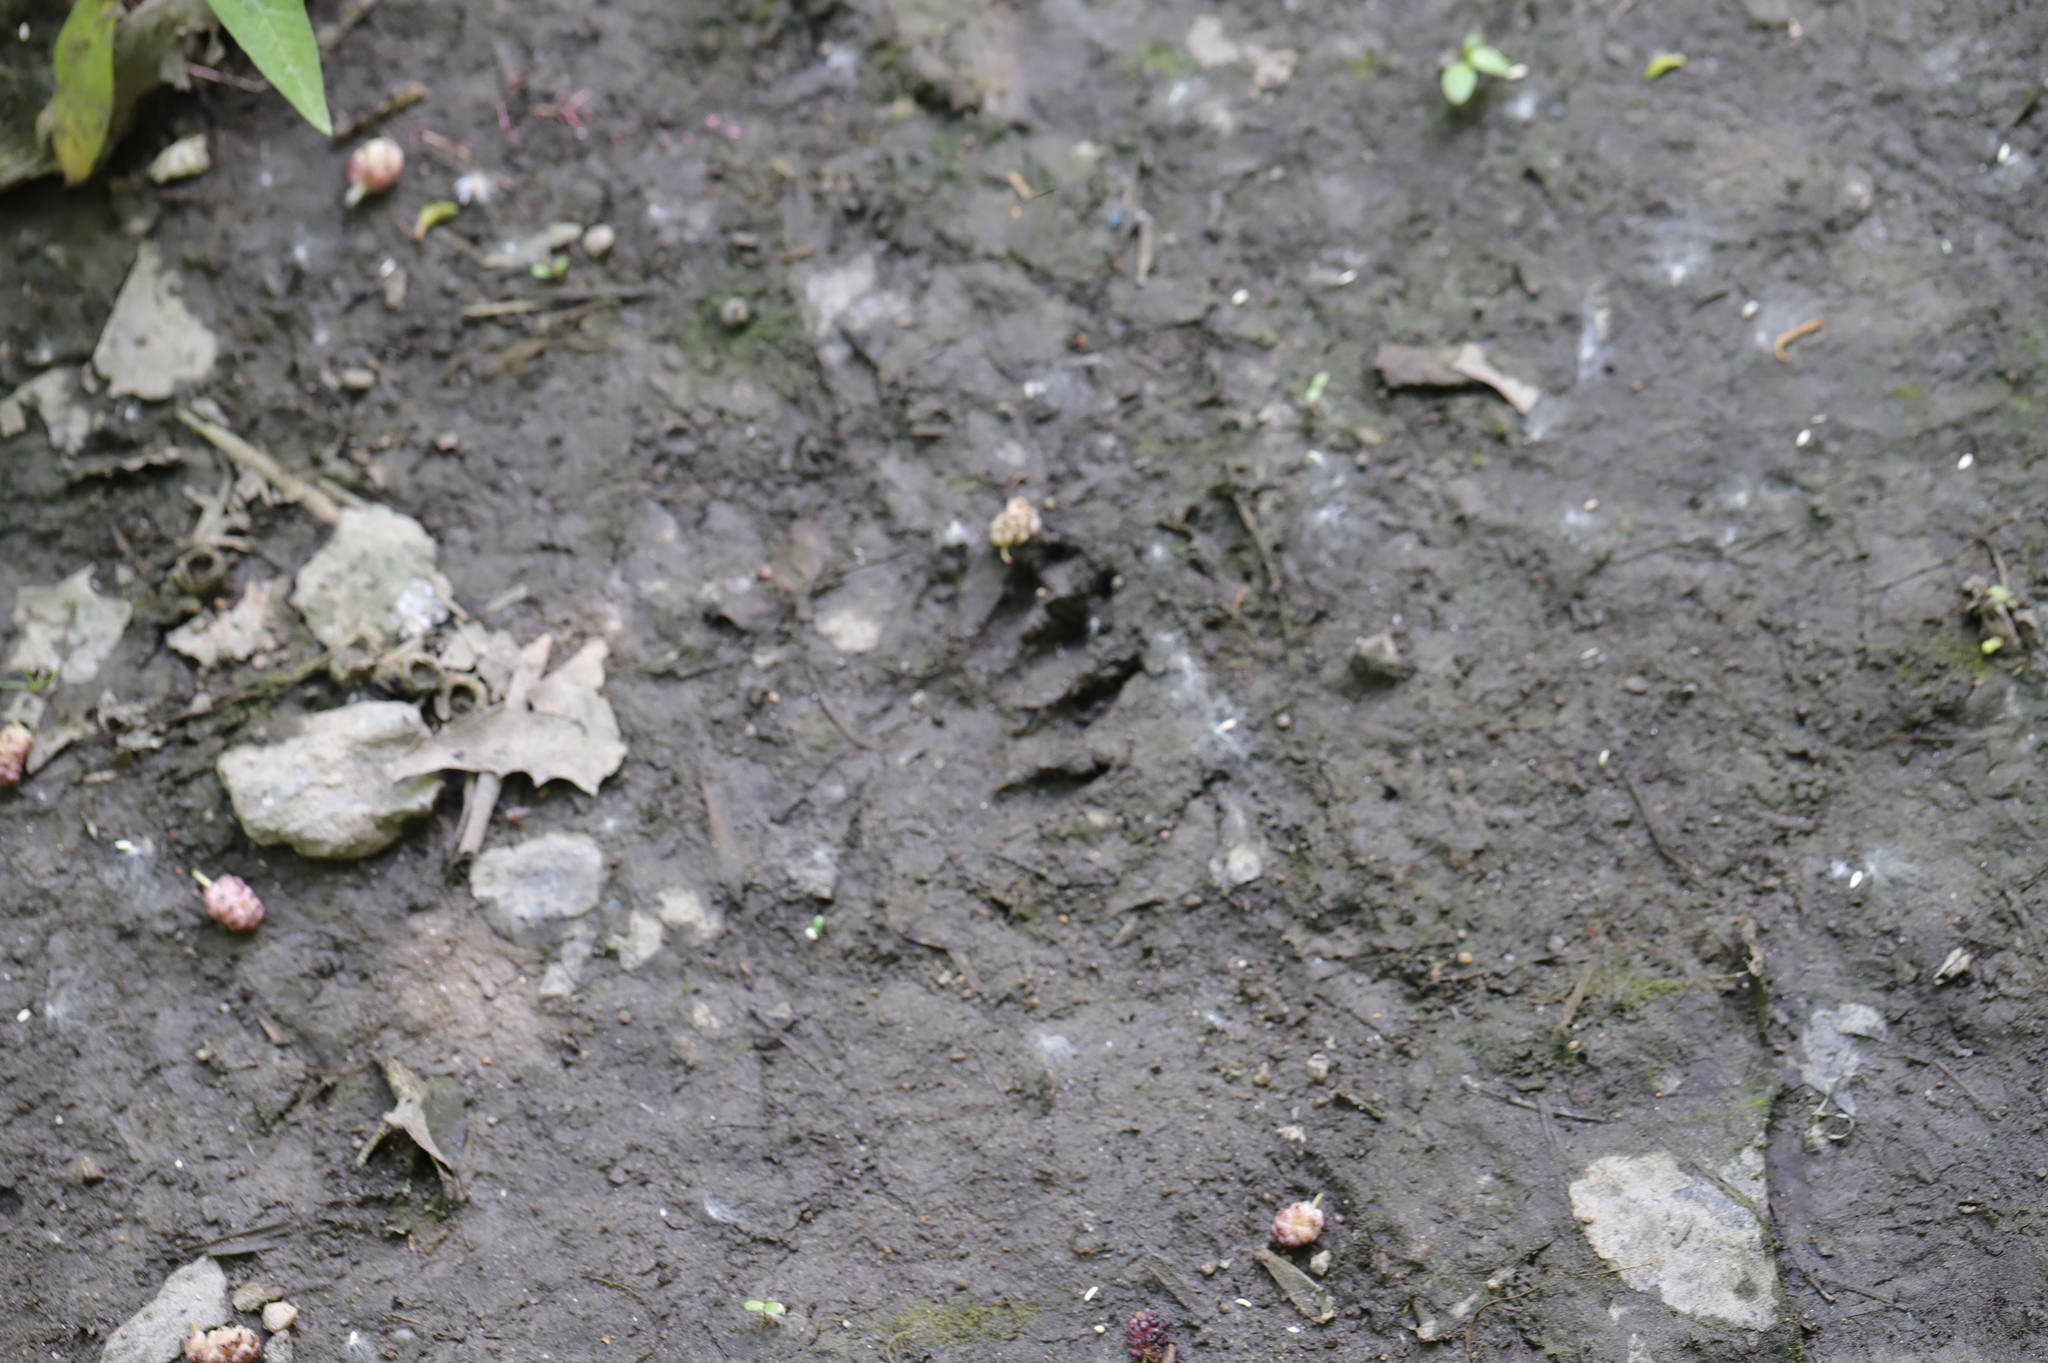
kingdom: Animalia
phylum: Chordata
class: Mammalia
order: Carnivora
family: Procyonidae
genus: Procyon
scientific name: Procyon lotor
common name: Raccoon
